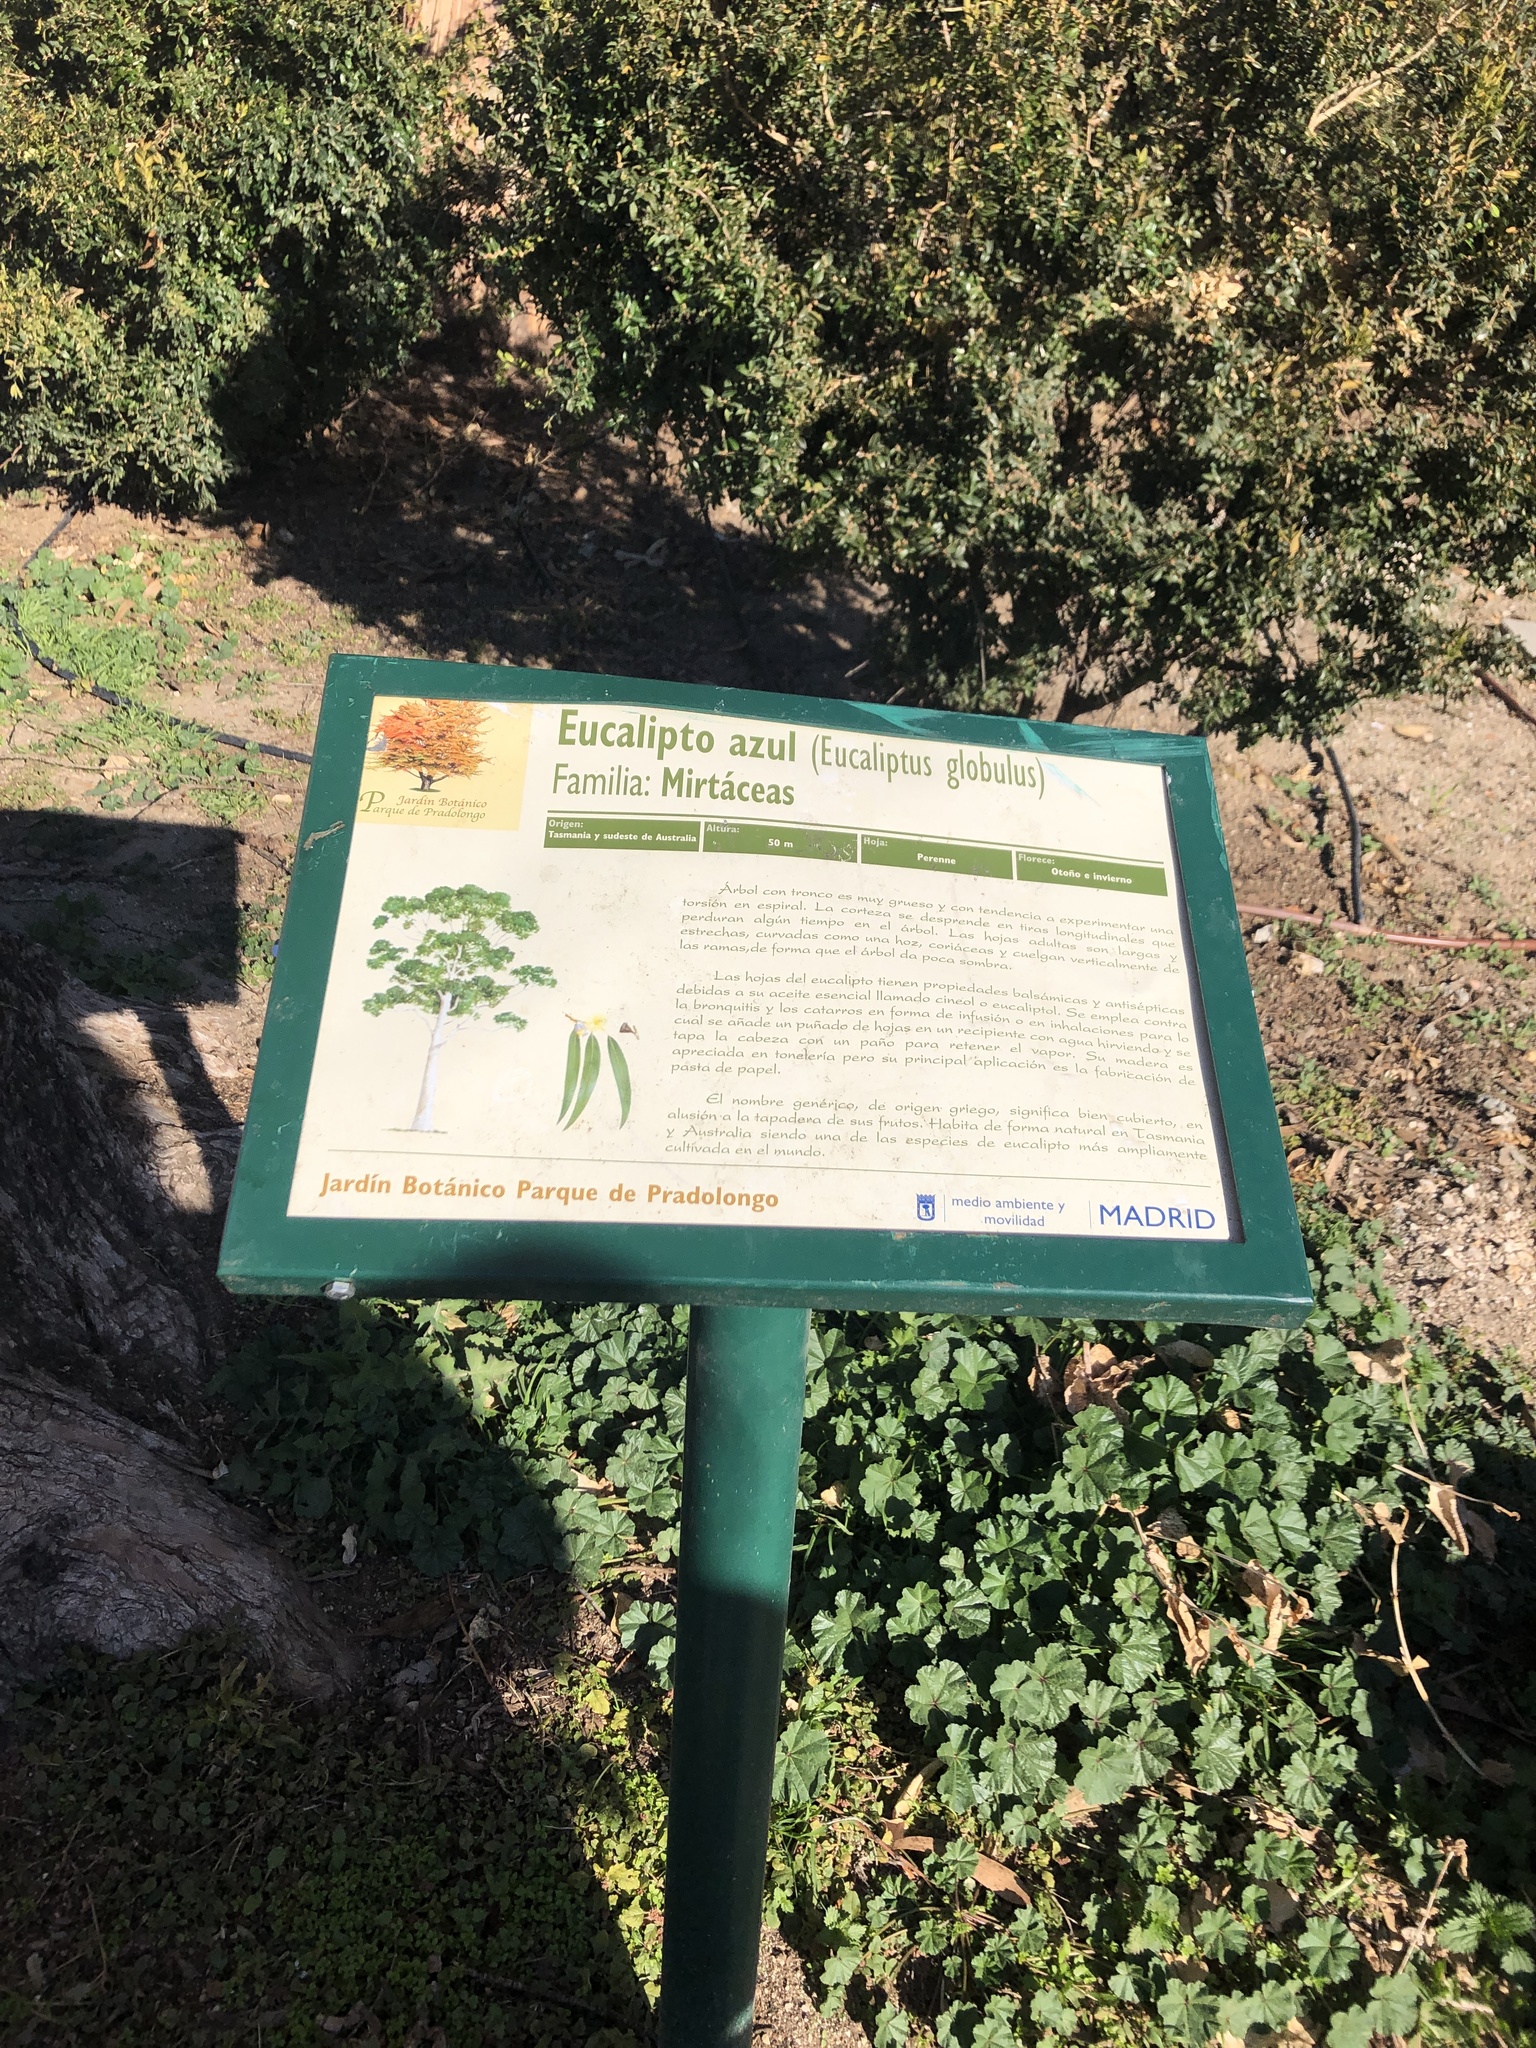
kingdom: Plantae
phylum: Tracheophyta
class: Magnoliopsida
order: Myrtales
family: Myrtaceae
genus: Eucalyptus
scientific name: Eucalyptus globulus
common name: Southern blue-gum
